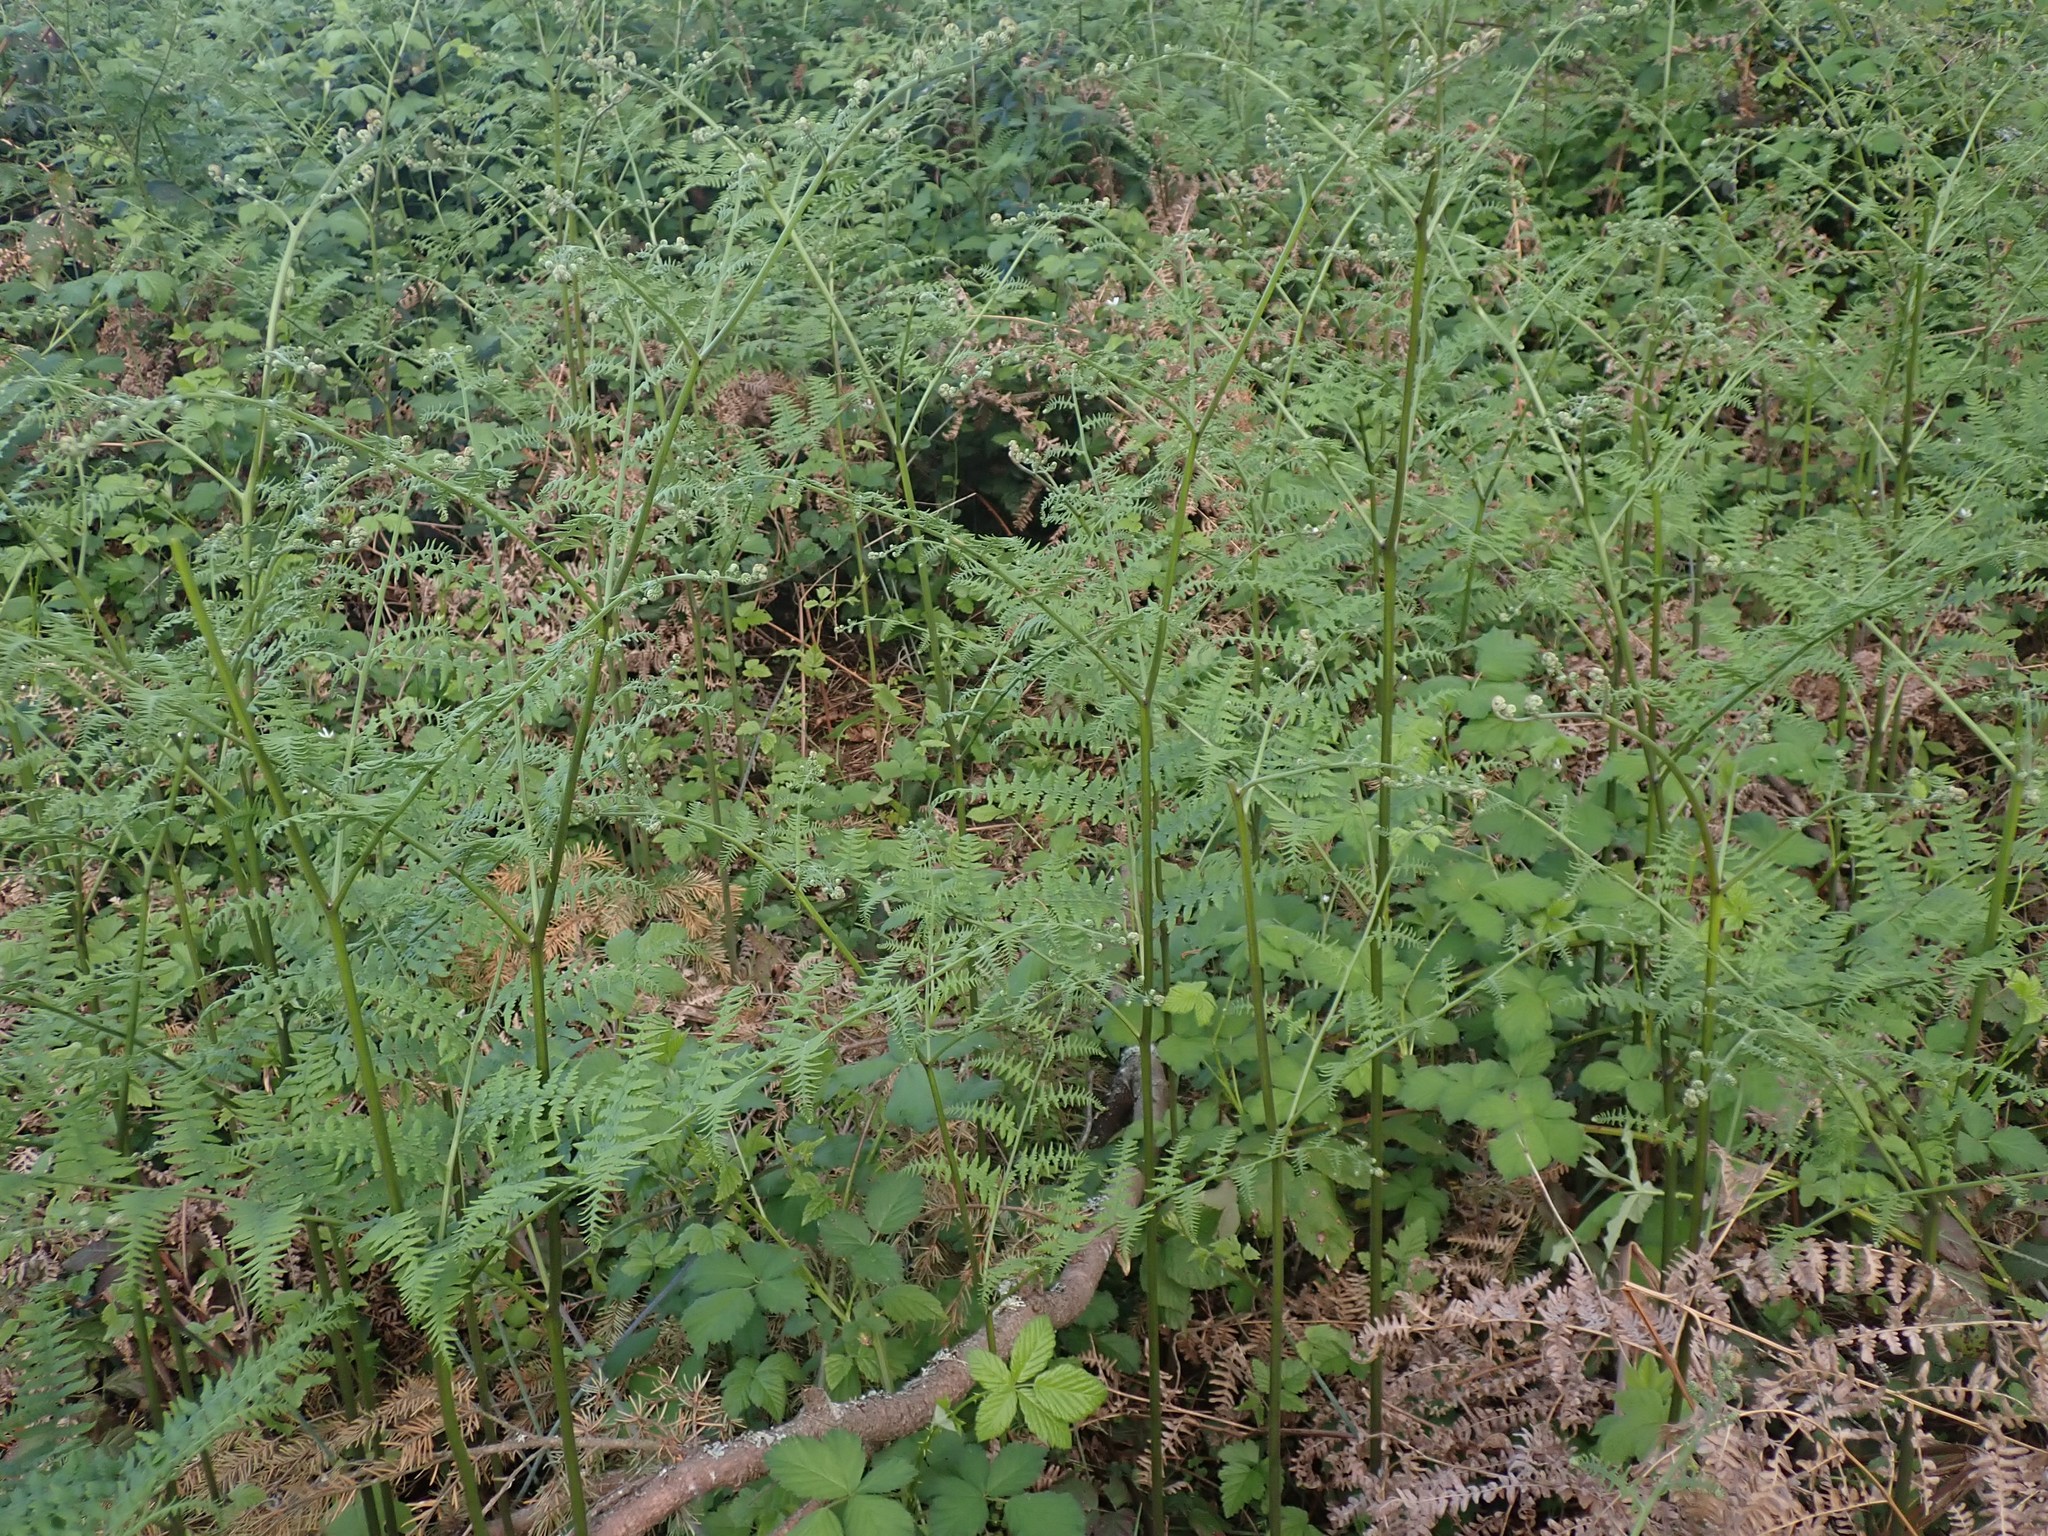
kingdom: Plantae
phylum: Tracheophyta
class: Polypodiopsida
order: Polypodiales
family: Dennstaedtiaceae
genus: Pteridium
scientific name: Pteridium aquilinum
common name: Bracken
